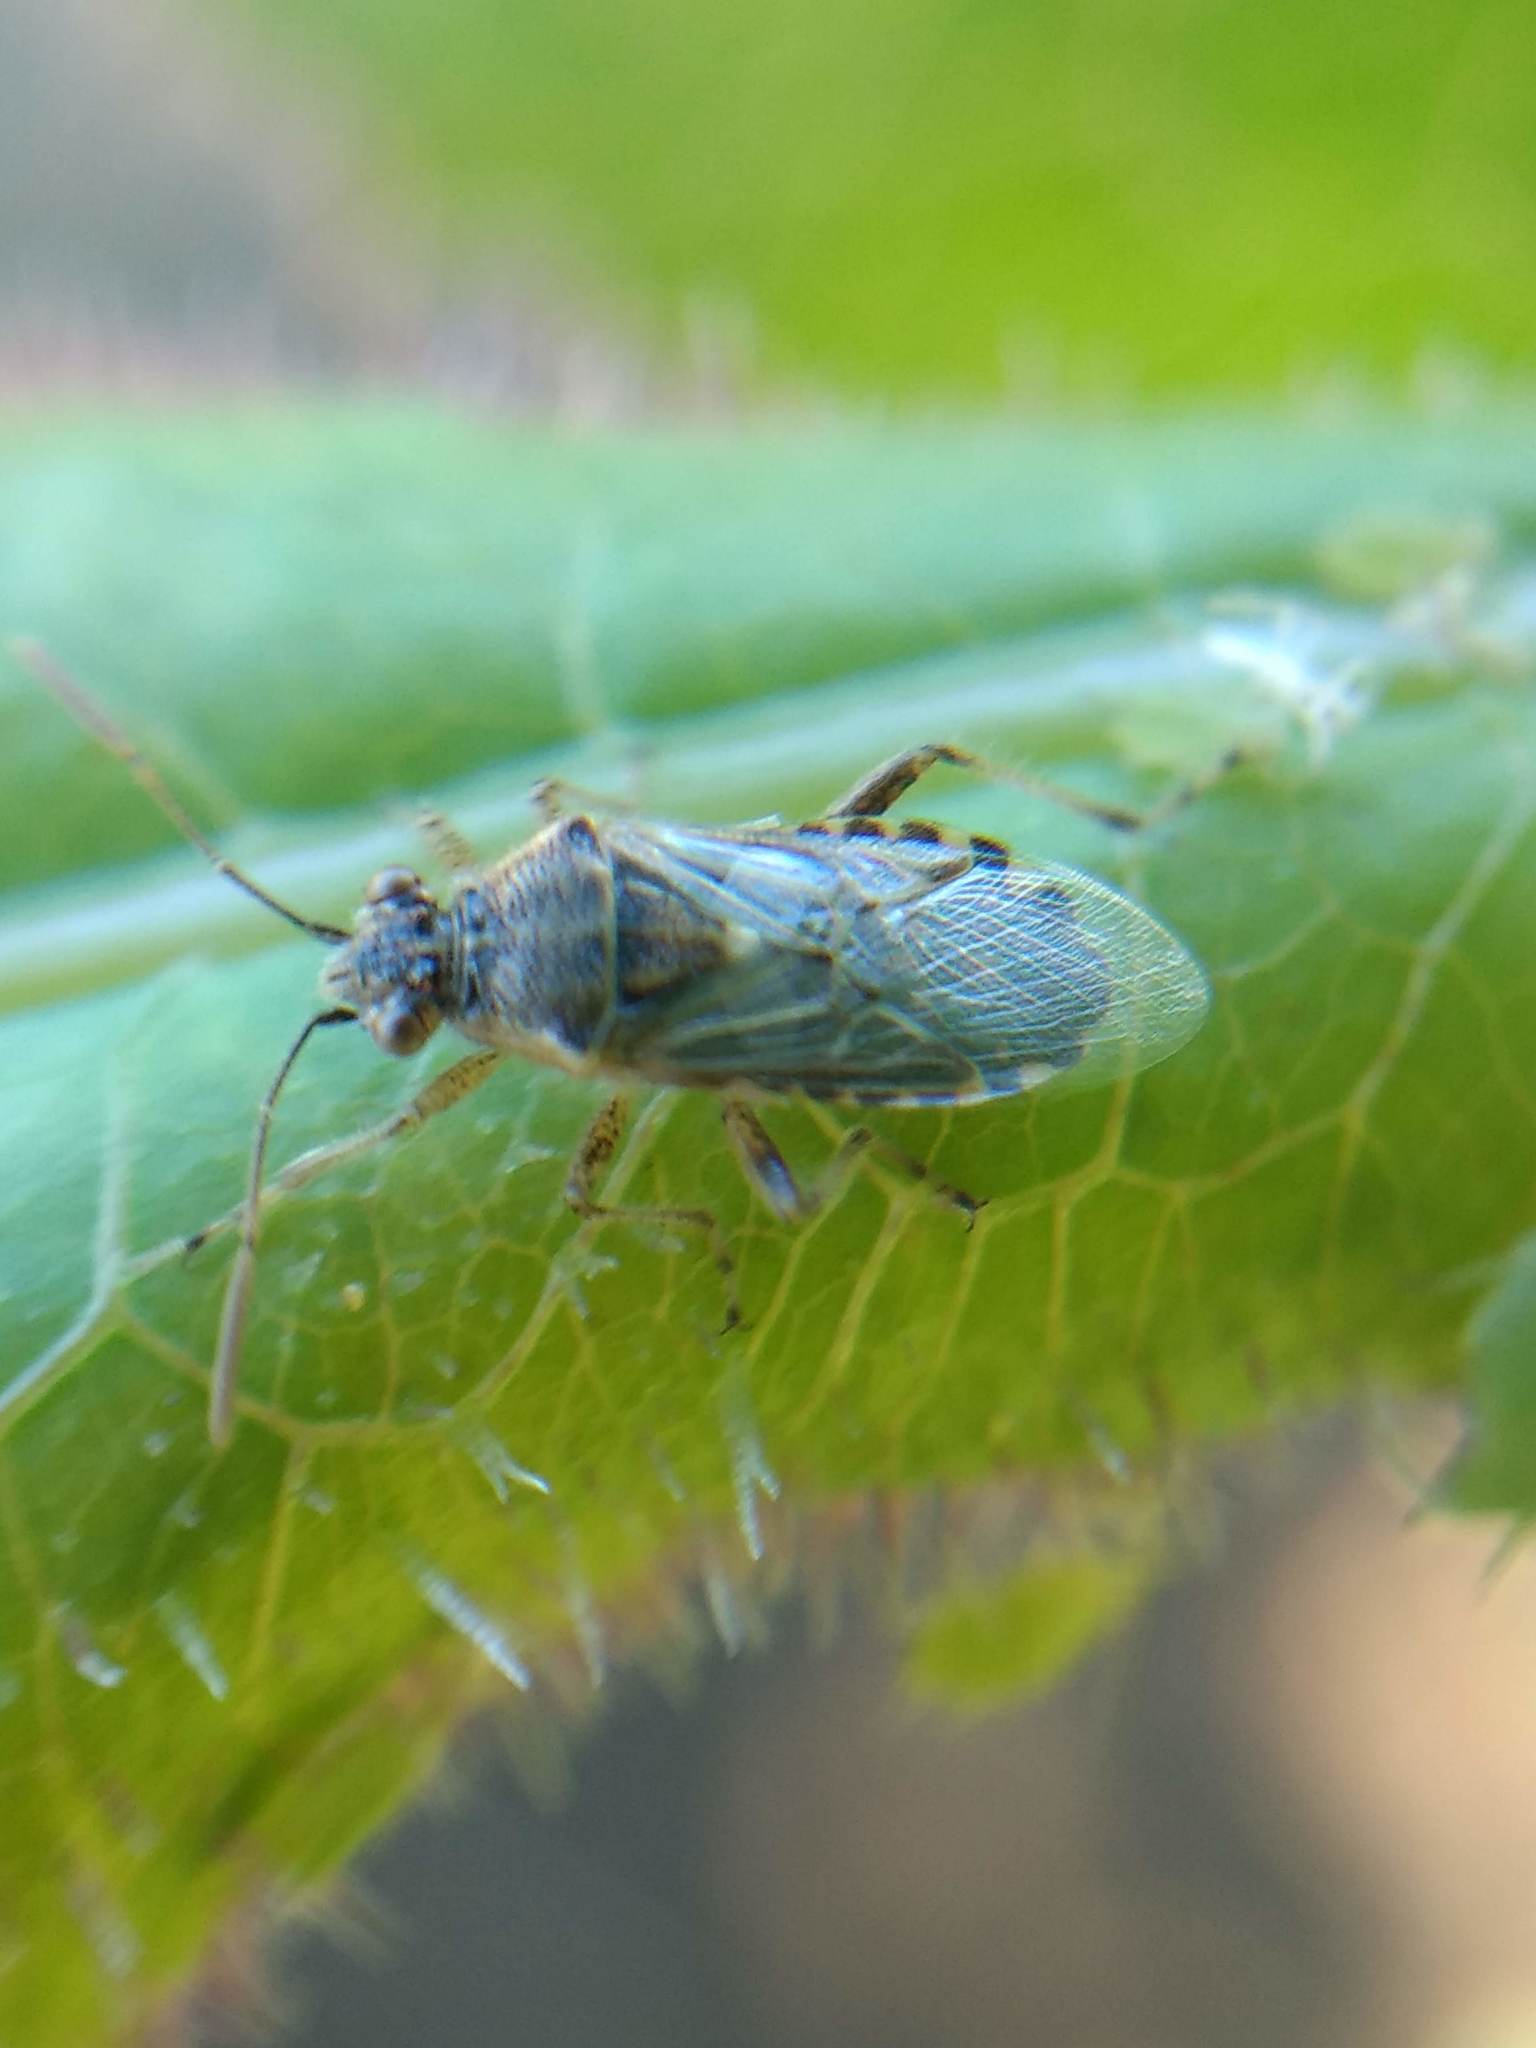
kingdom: Animalia
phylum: Arthropoda
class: Insecta
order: Hemiptera
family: Rhopalidae
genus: Liorhyssus
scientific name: Liorhyssus hyalinus
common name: Scentless plant bug
